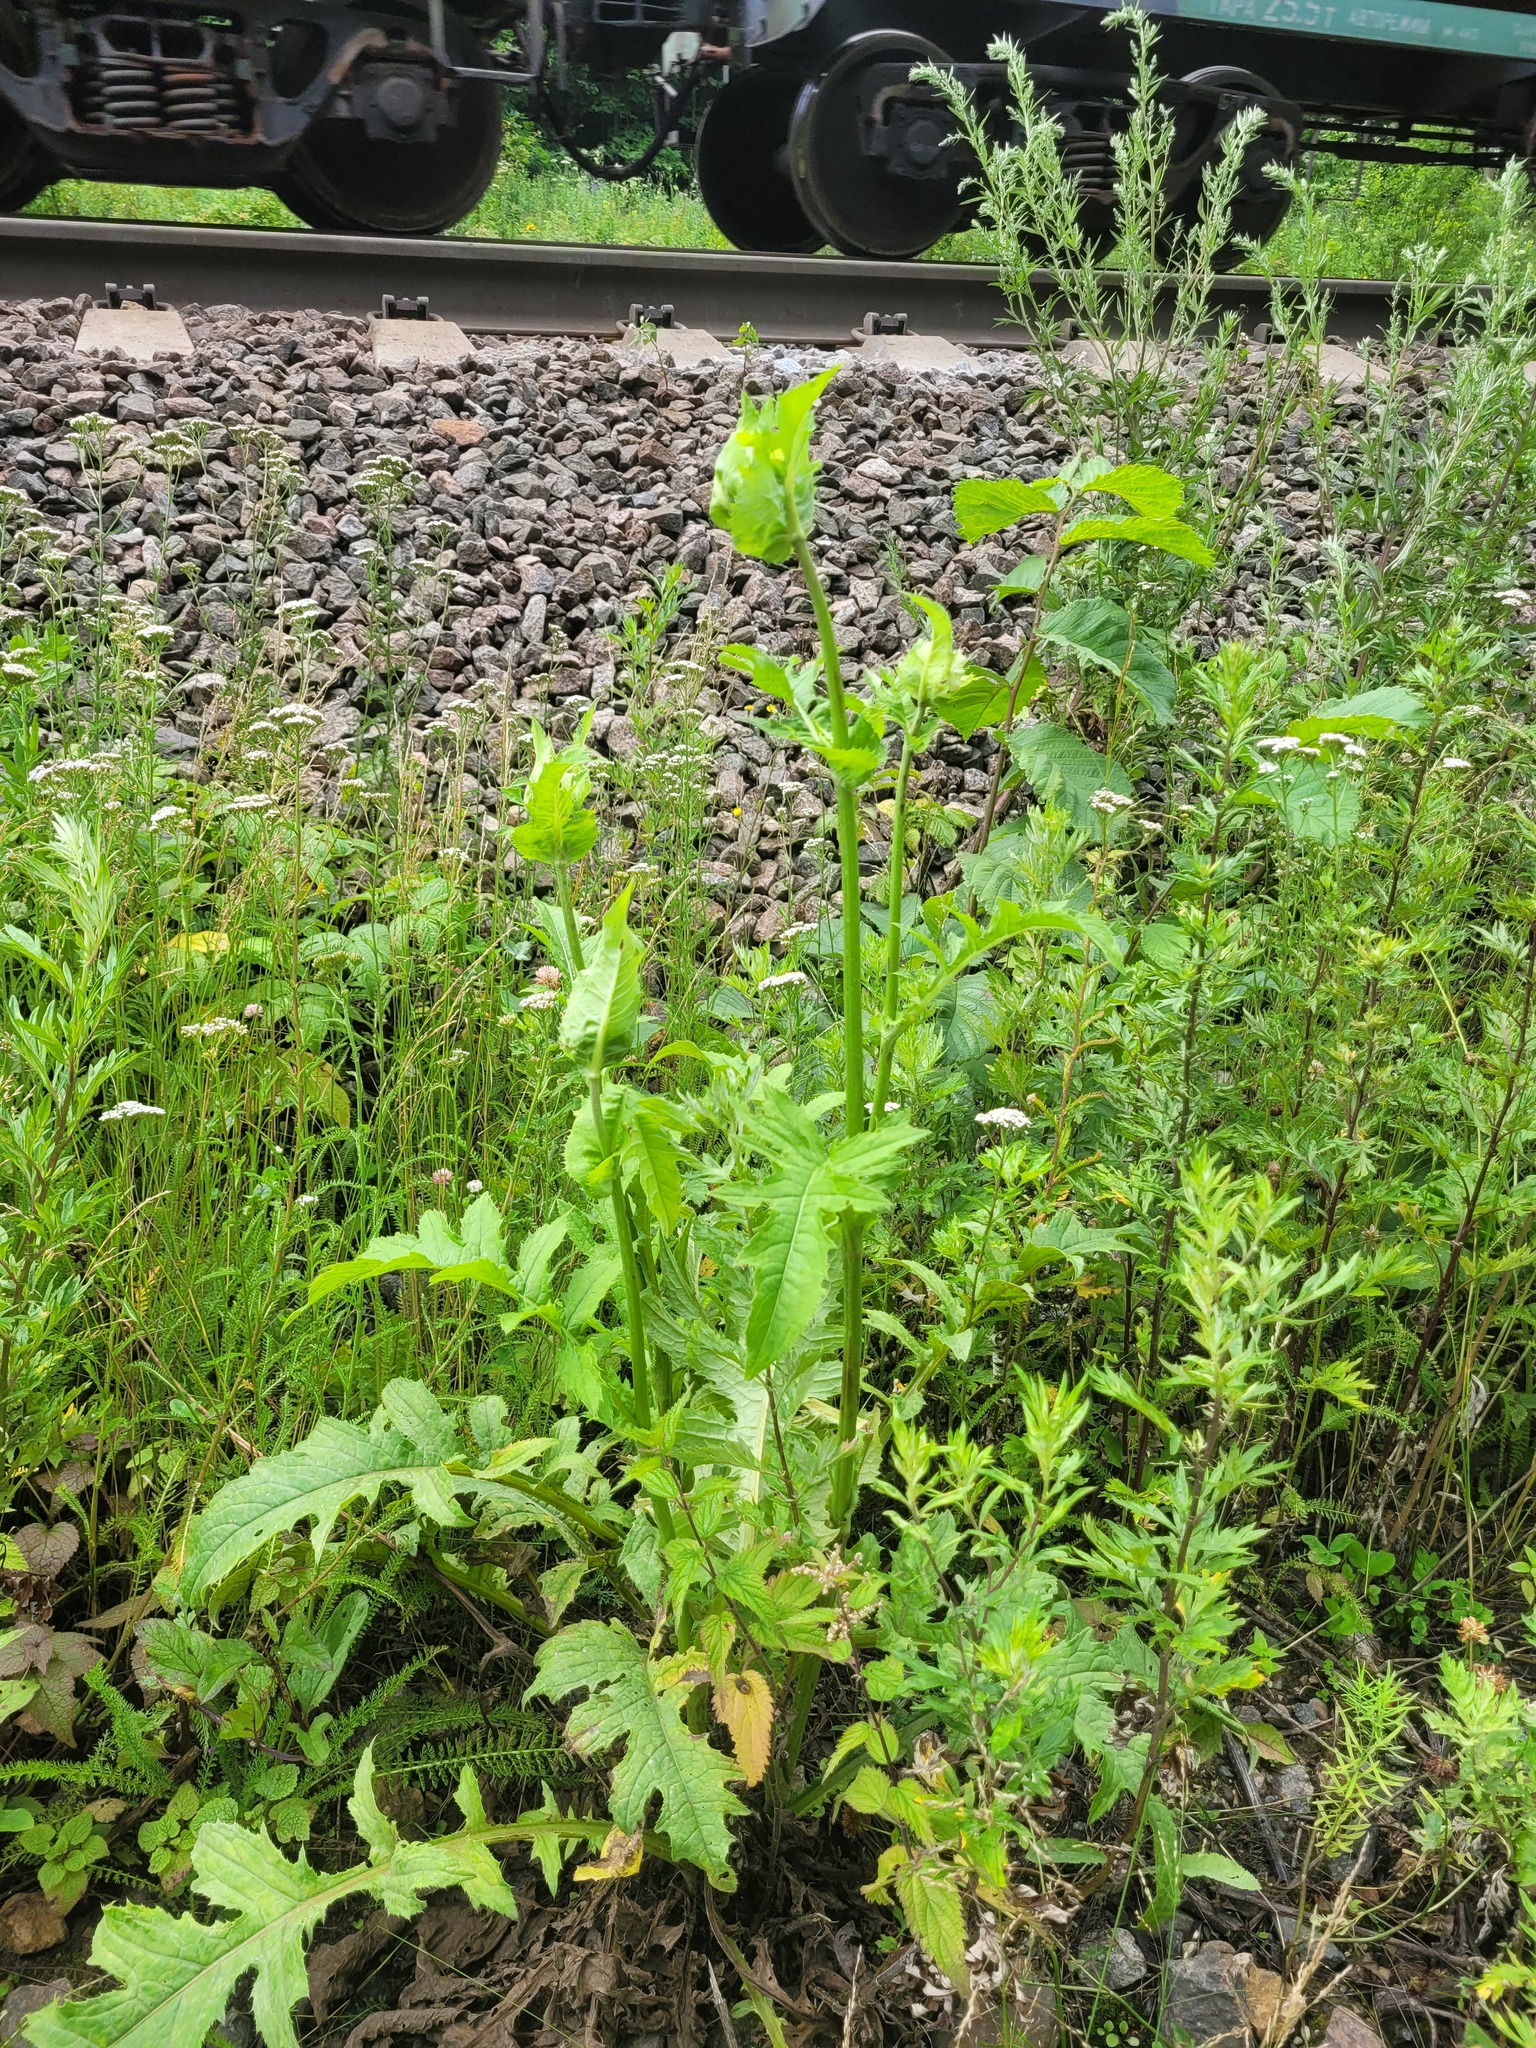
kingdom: Plantae
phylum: Tracheophyta
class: Magnoliopsida
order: Asterales
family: Asteraceae
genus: Cirsium
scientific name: Cirsium oleraceum
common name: Cabbage thistle
